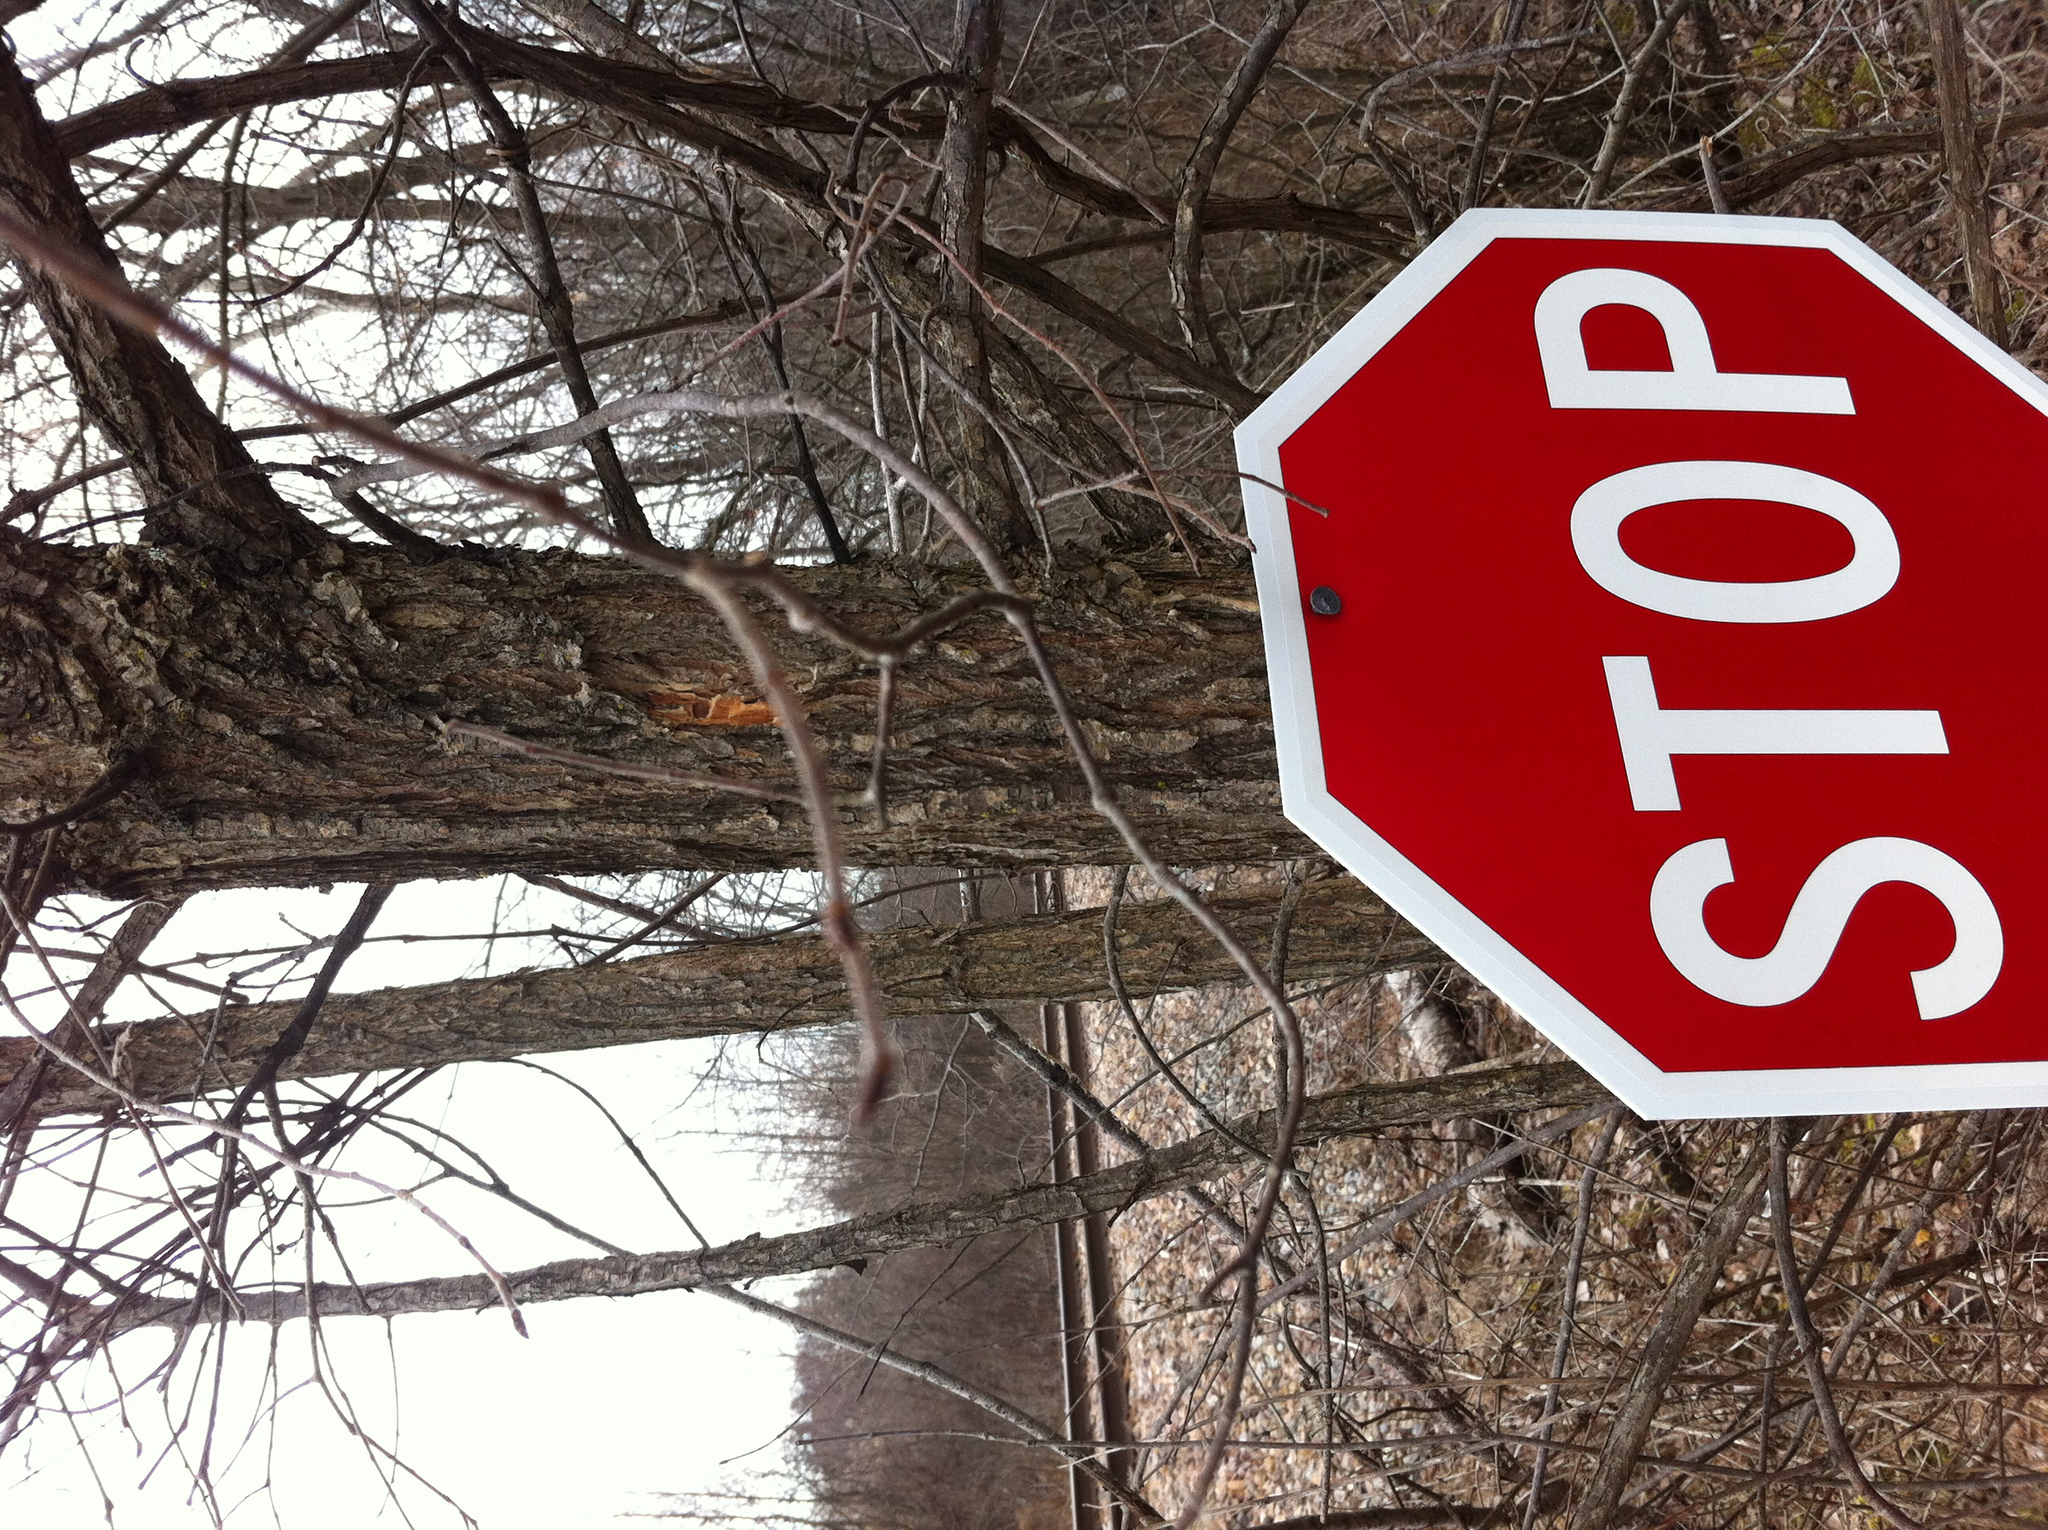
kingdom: Plantae
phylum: Tracheophyta
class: Magnoliopsida
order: Rosales
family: Ulmaceae
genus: Ulmus
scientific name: Ulmus americana
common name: American elm
